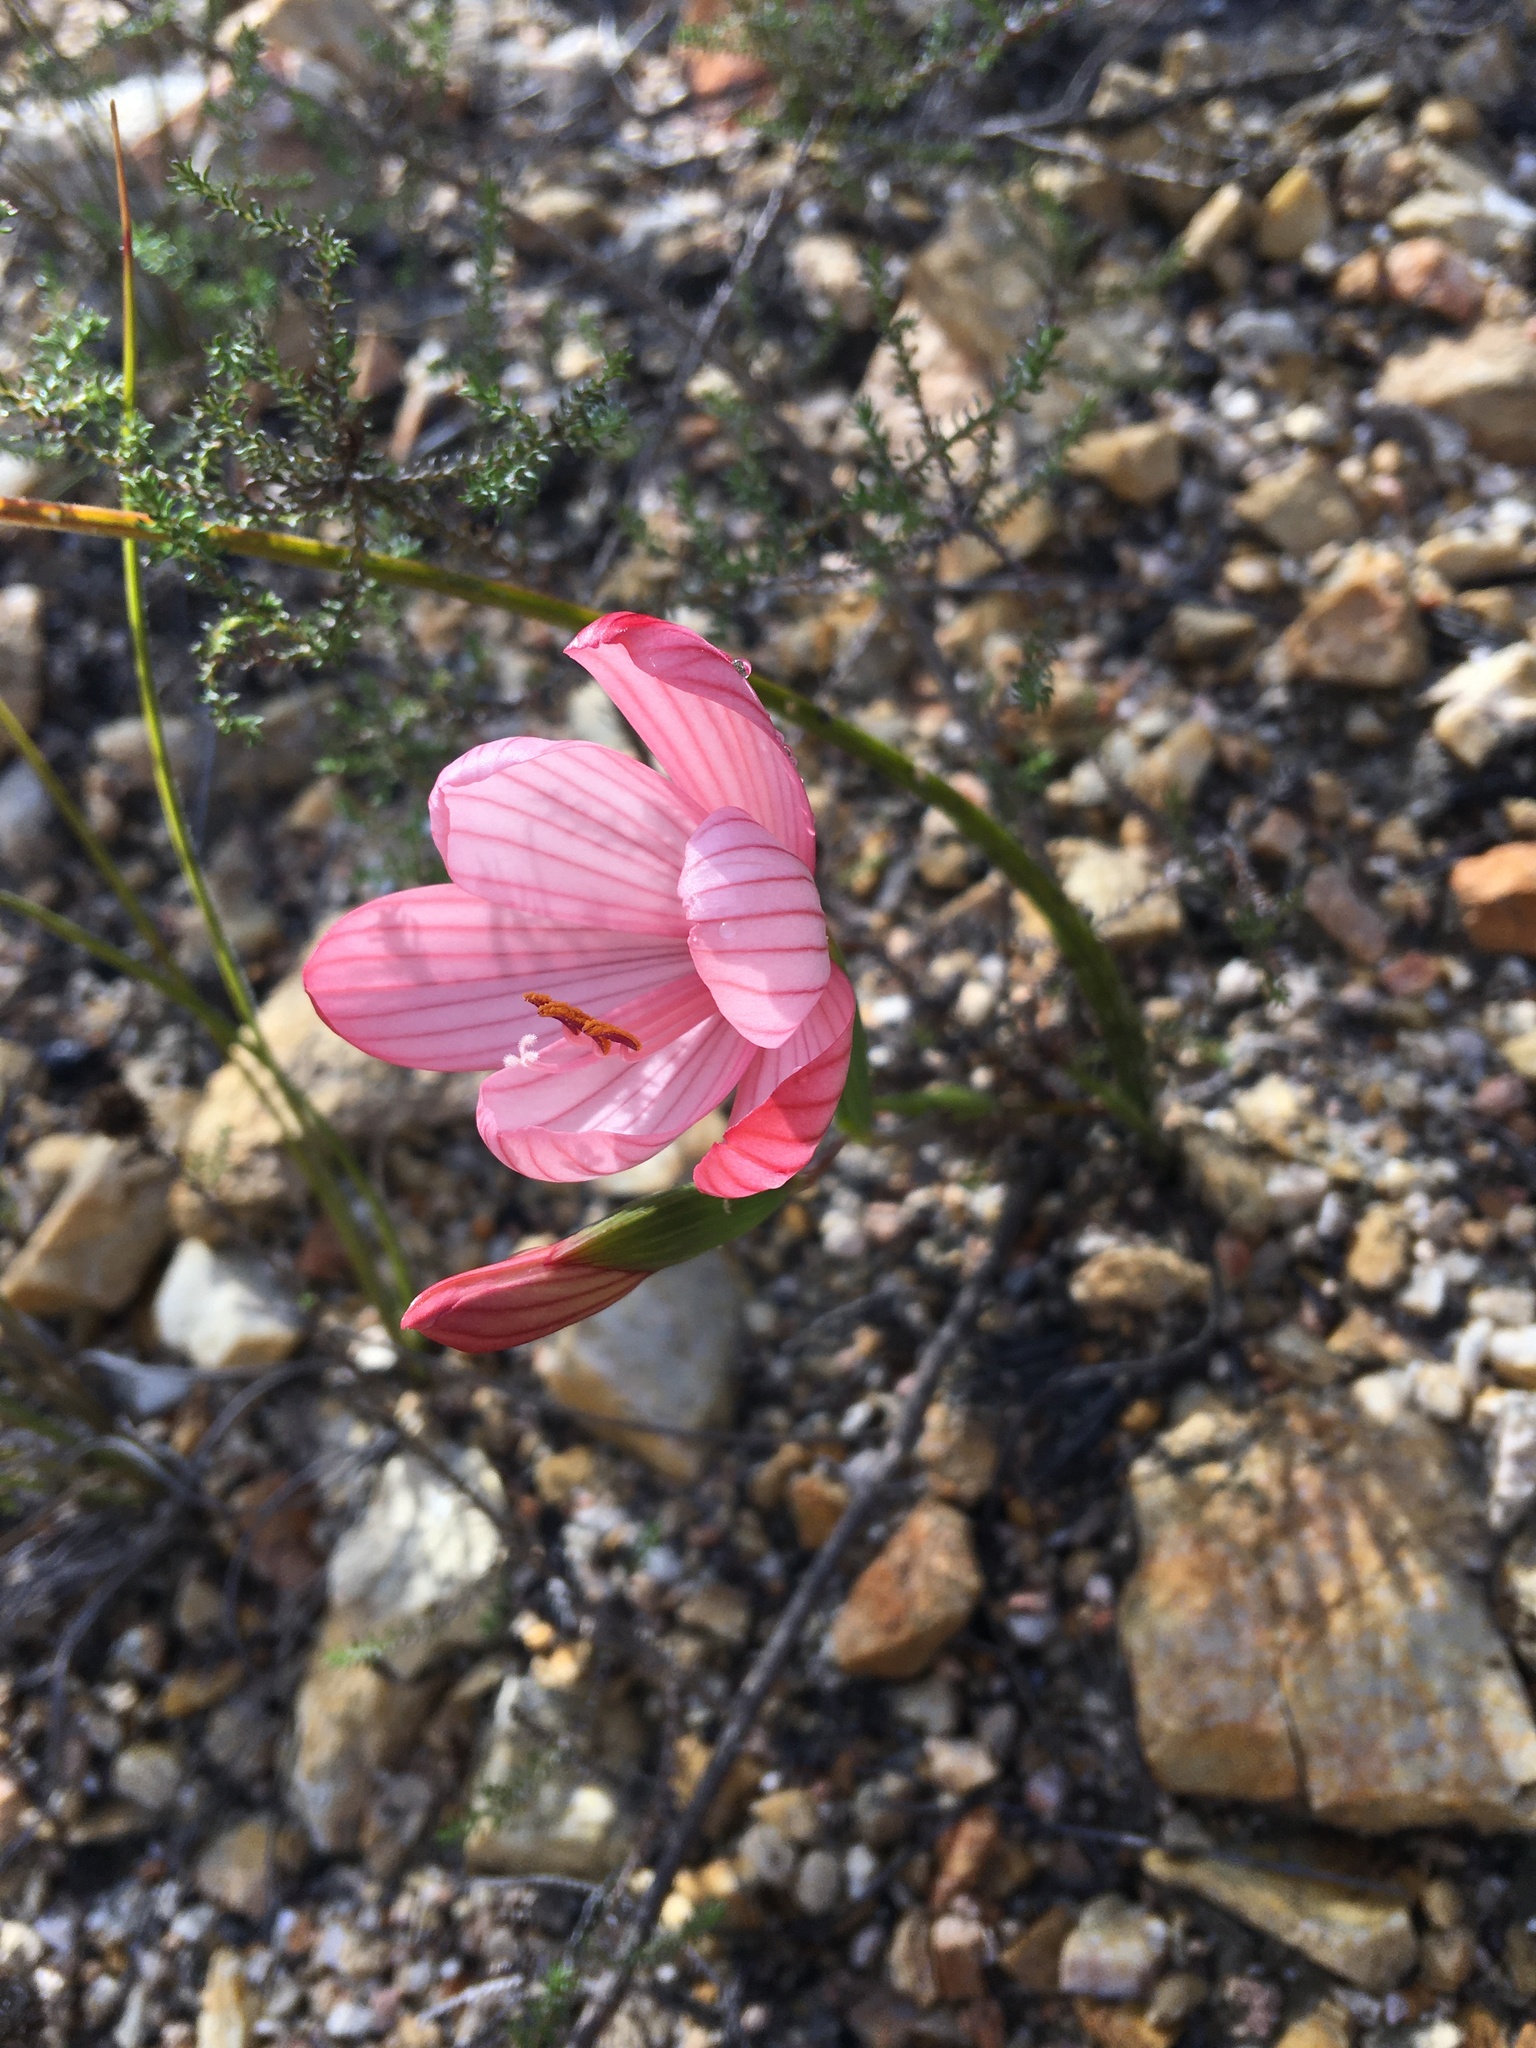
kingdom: Plantae
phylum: Tracheophyta
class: Liliopsida
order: Asparagales
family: Iridaceae
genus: Geissorhiza
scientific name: Geissorhiza schinzii
